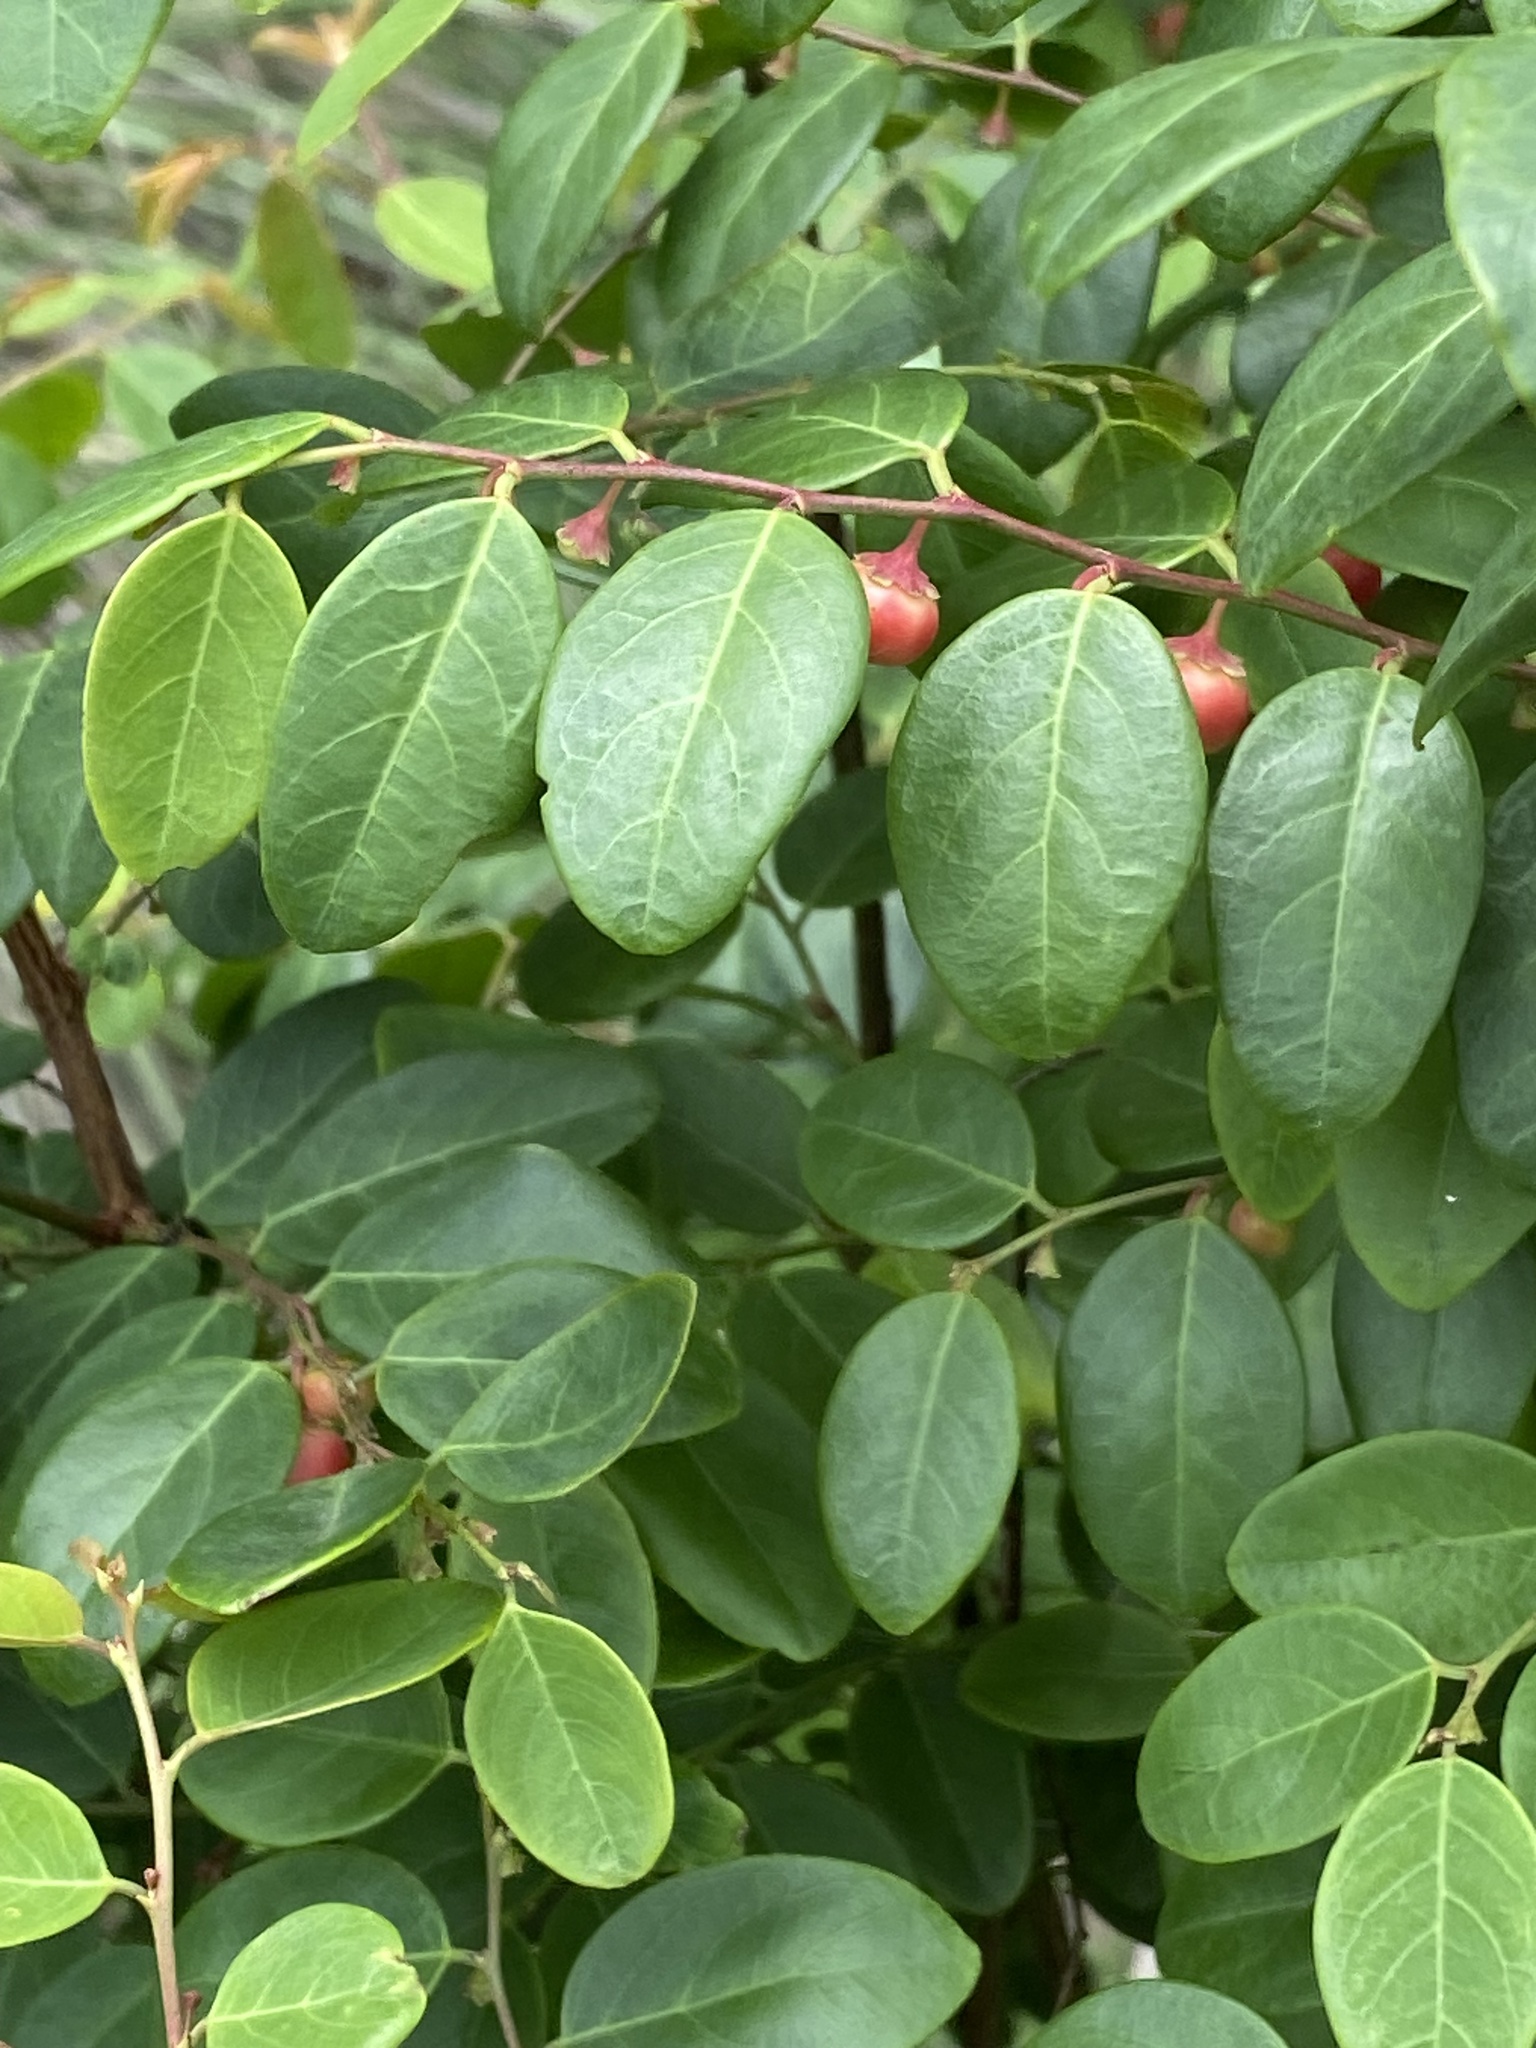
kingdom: Plantae
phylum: Tracheophyta
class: Magnoliopsida
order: Malpighiales
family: Phyllanthaceae
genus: Breynia
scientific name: Breynia oblongifolia
